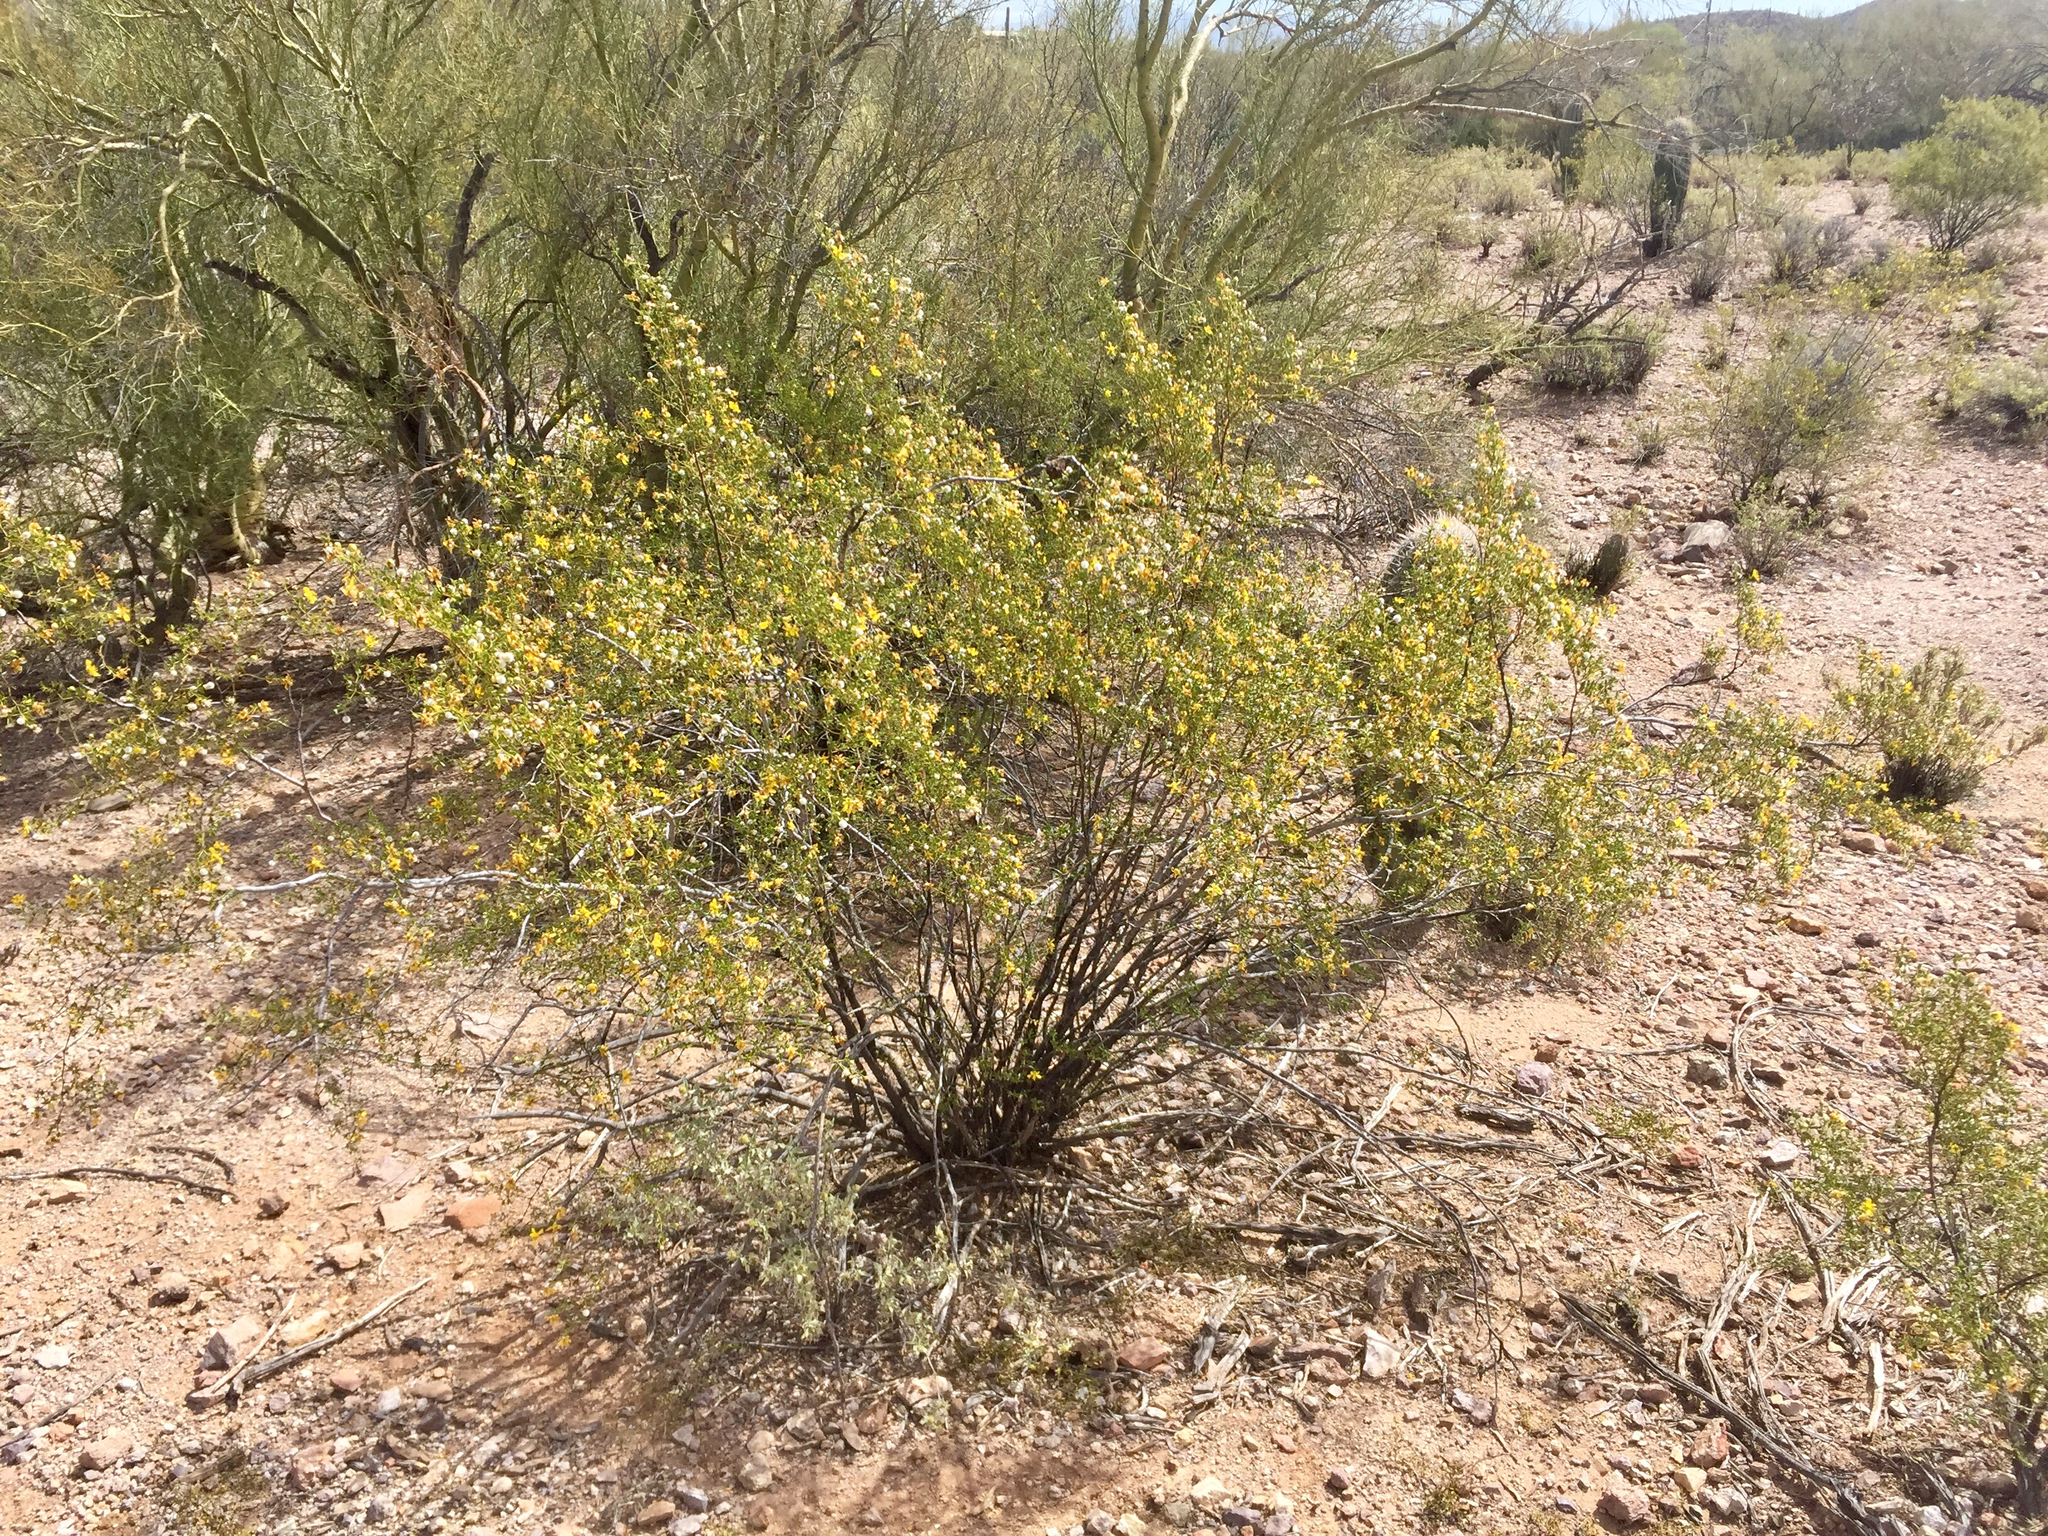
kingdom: Plantae
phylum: Tracheophyta
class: Magnoliopsida
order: Zygophyllales
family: Zygophyllaceae
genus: Larrea
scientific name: Larrea tridentata
